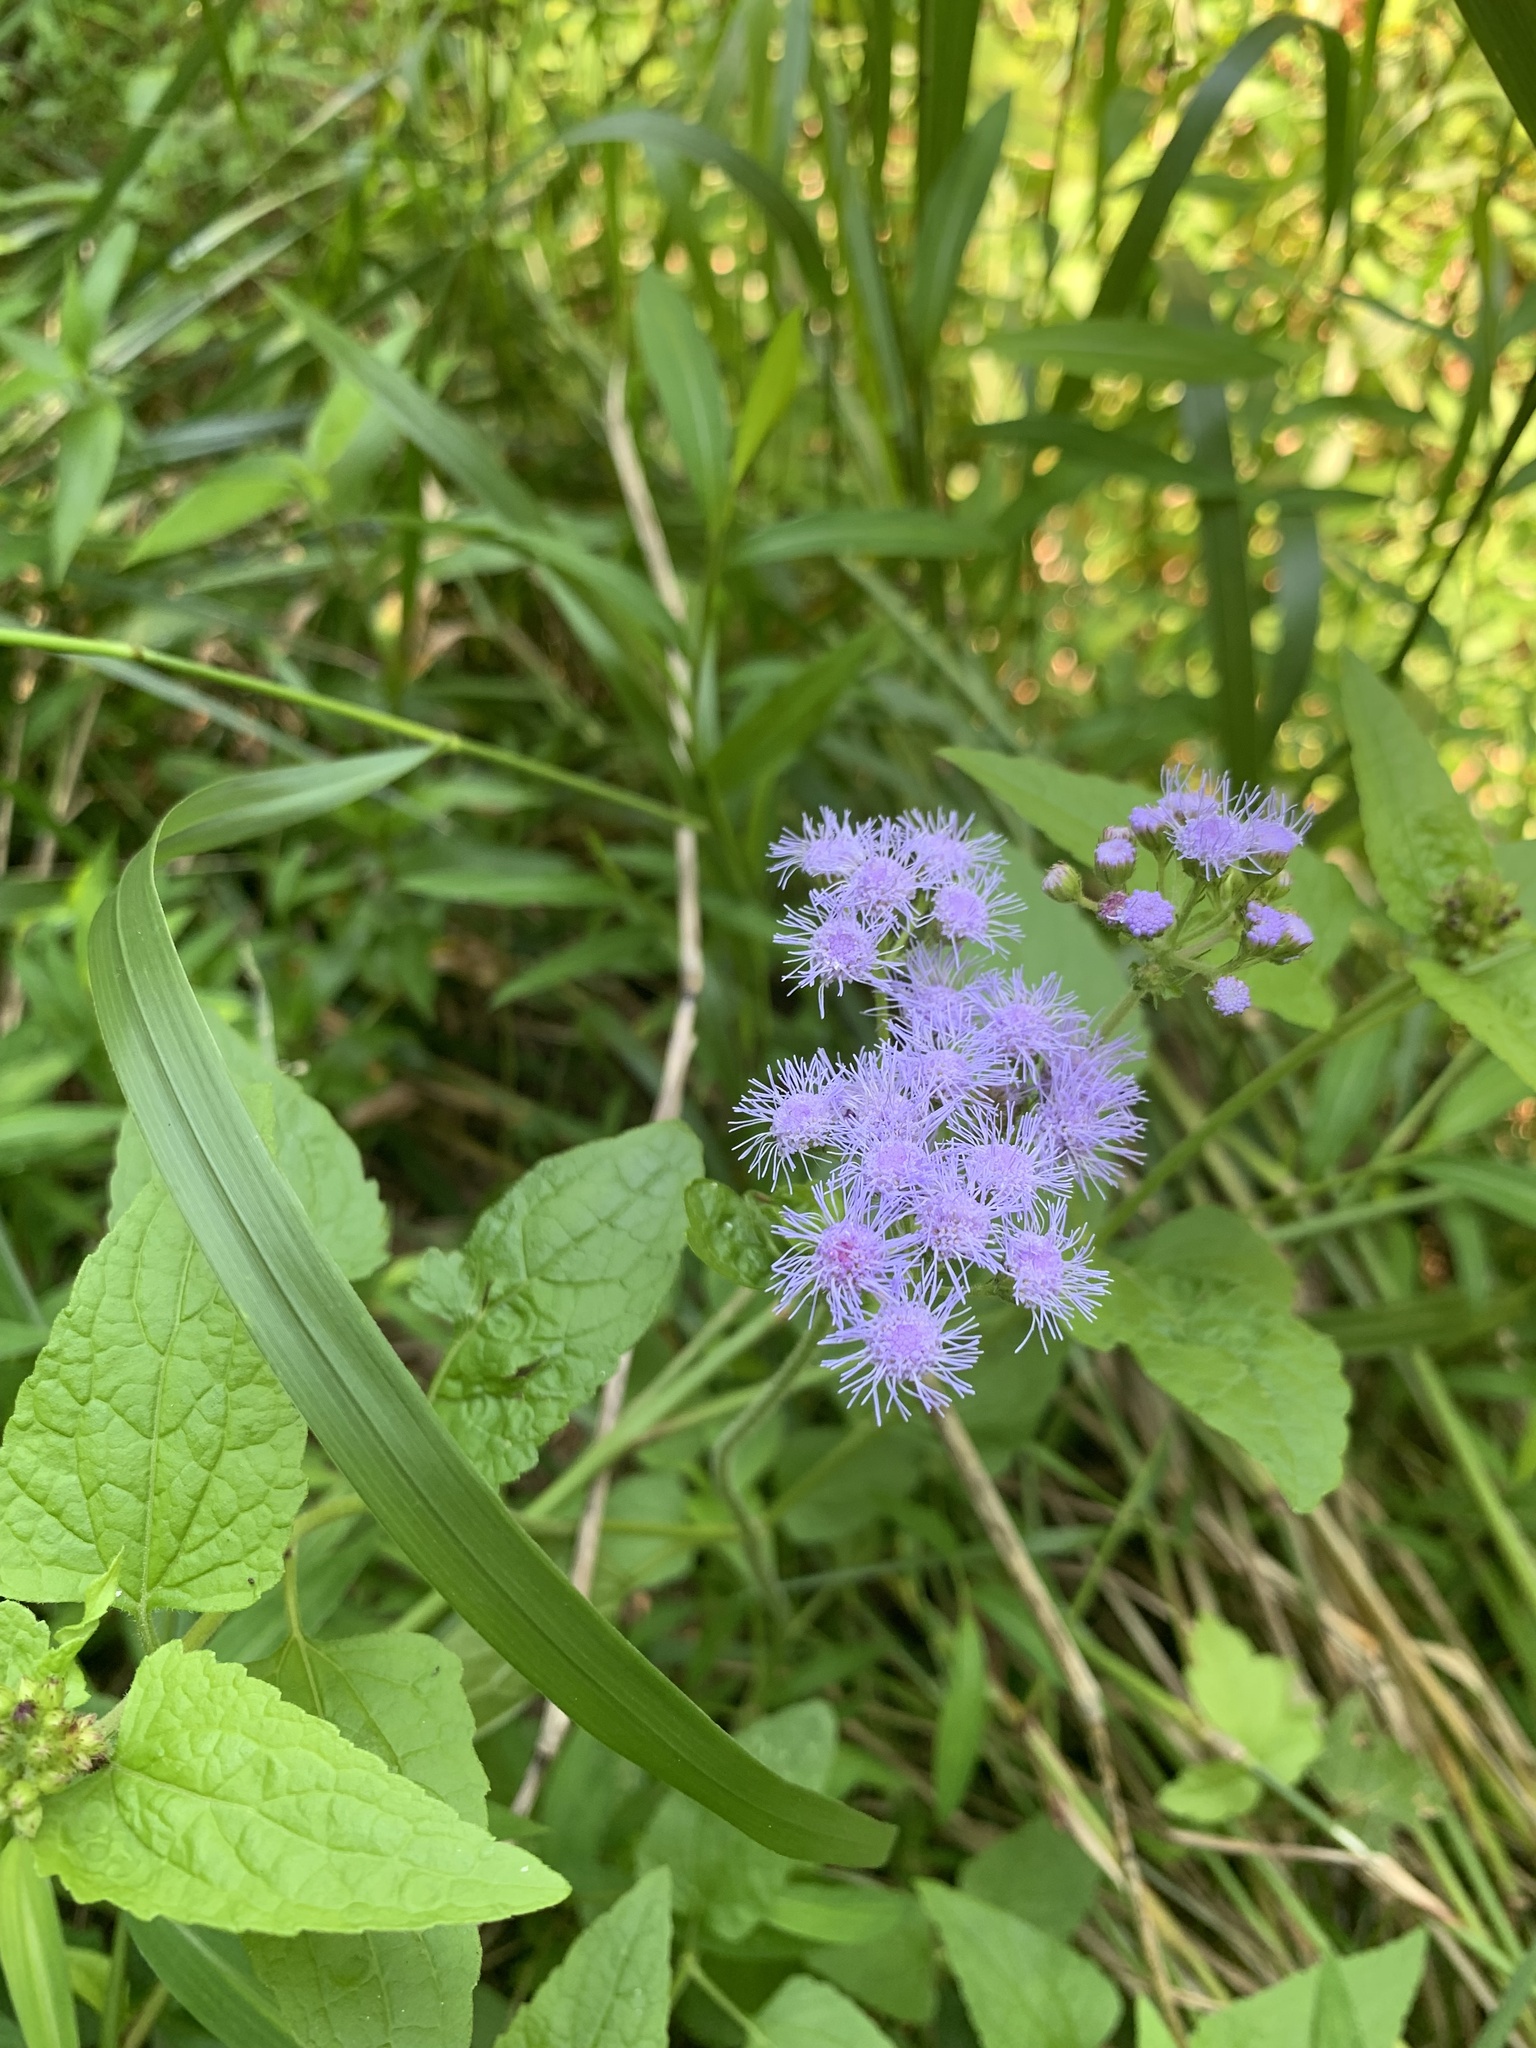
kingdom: Plantae
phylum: Tracheophyta
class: Magnoliopsida
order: Asterales
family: Asteraceae
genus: Conoclinium
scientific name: Conoclinium coelestinum
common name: Blue mistflower
